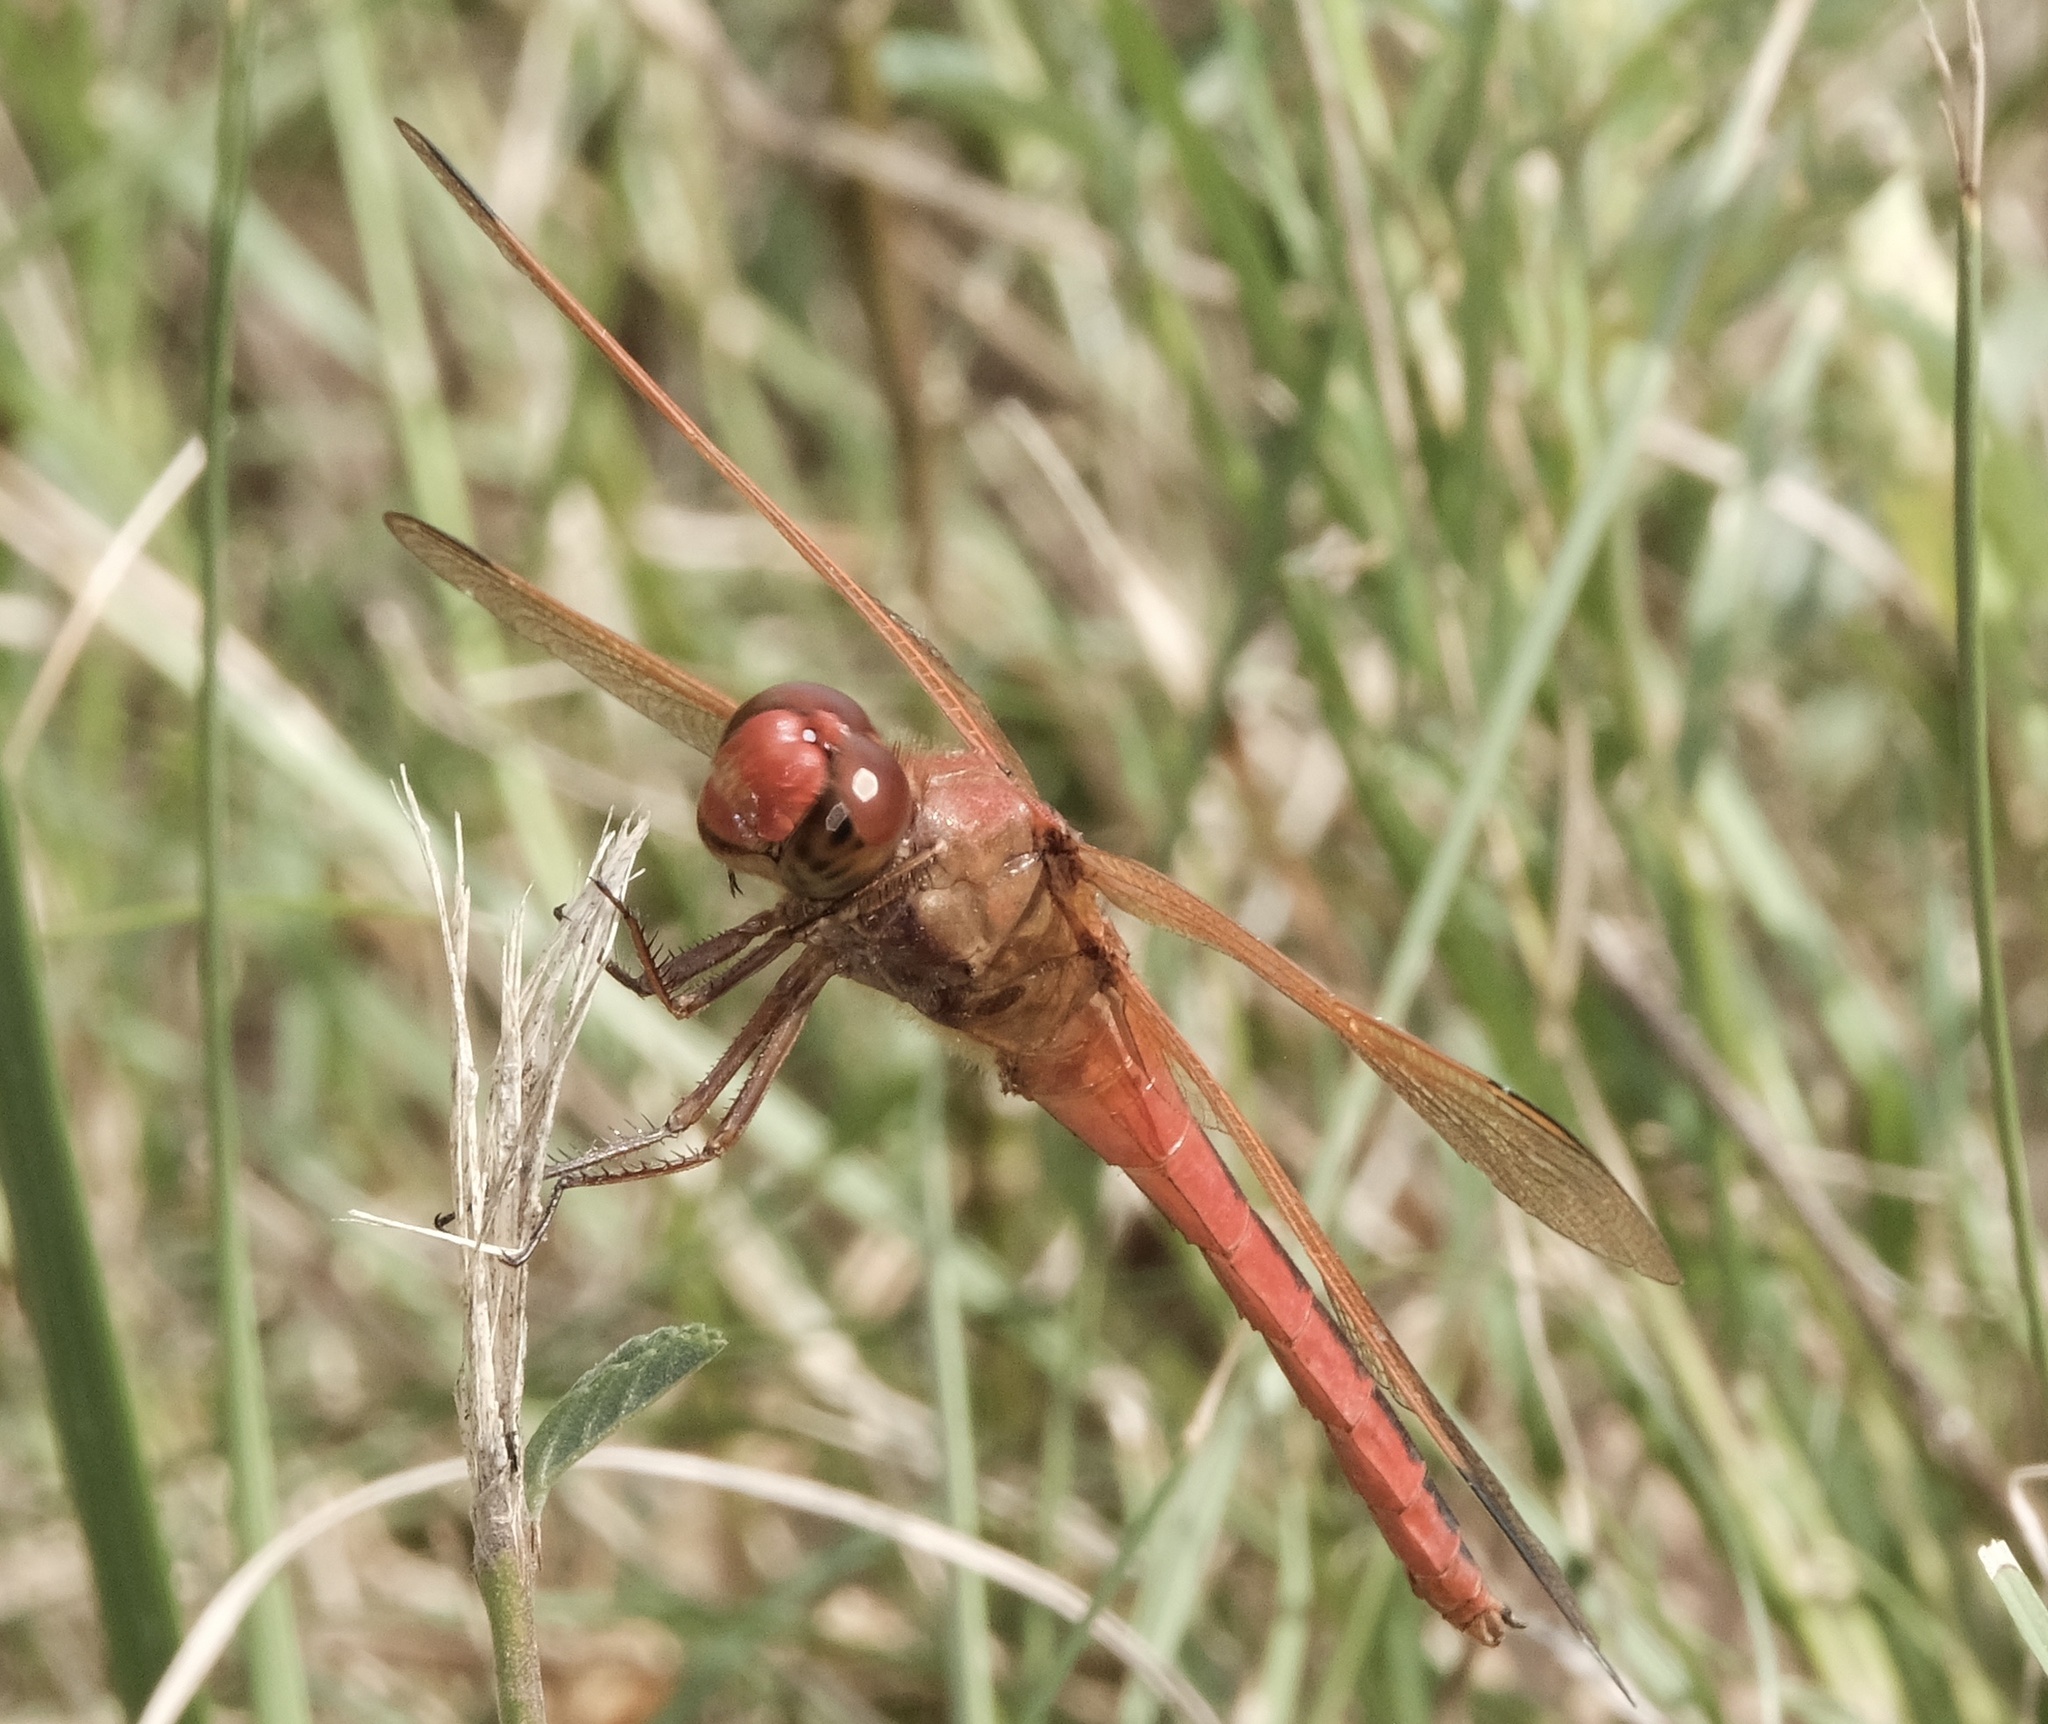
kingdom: Animalia
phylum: Arthropoda
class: Insecta
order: Odonata
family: Libellulidae
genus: Libellula
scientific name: Libellula needhami
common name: Needham's skimmer
